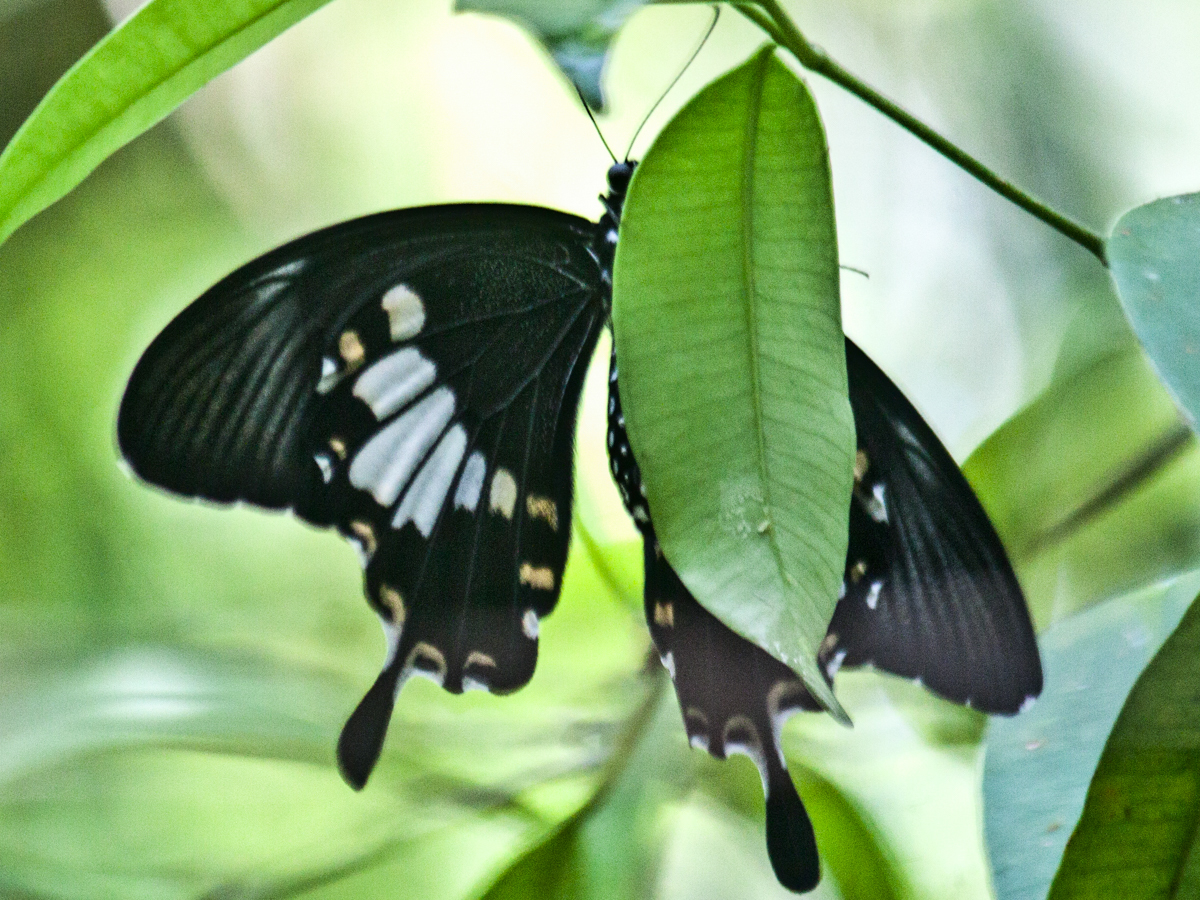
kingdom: Animalia
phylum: Arthropoda
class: Insecta
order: Lepidoptera
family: Papilionidae
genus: Atrophaneura
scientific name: Atrophaneura varuna
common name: Common batwing
